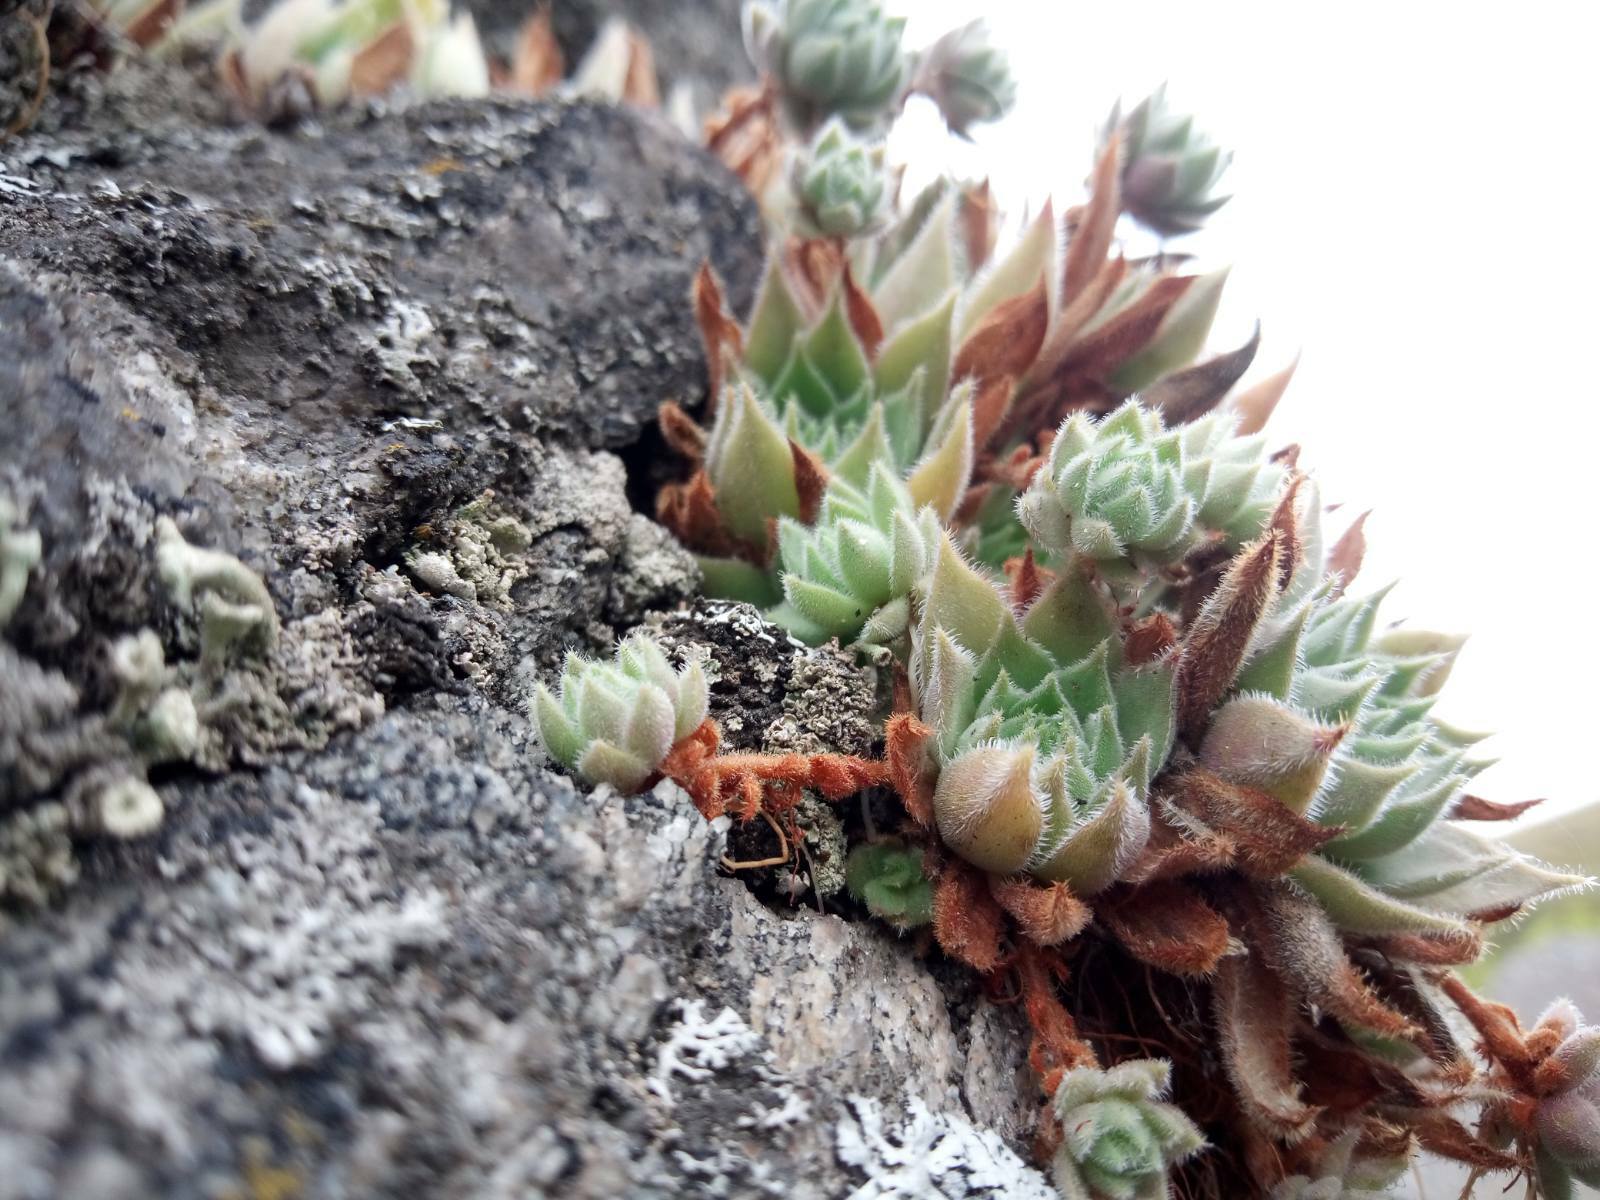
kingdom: Plantae
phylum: Tracheophyta
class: Magnoliopsida
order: Saxifragales
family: Crassulaceae
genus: Sempervivum
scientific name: Sempervivum ruthenicum
